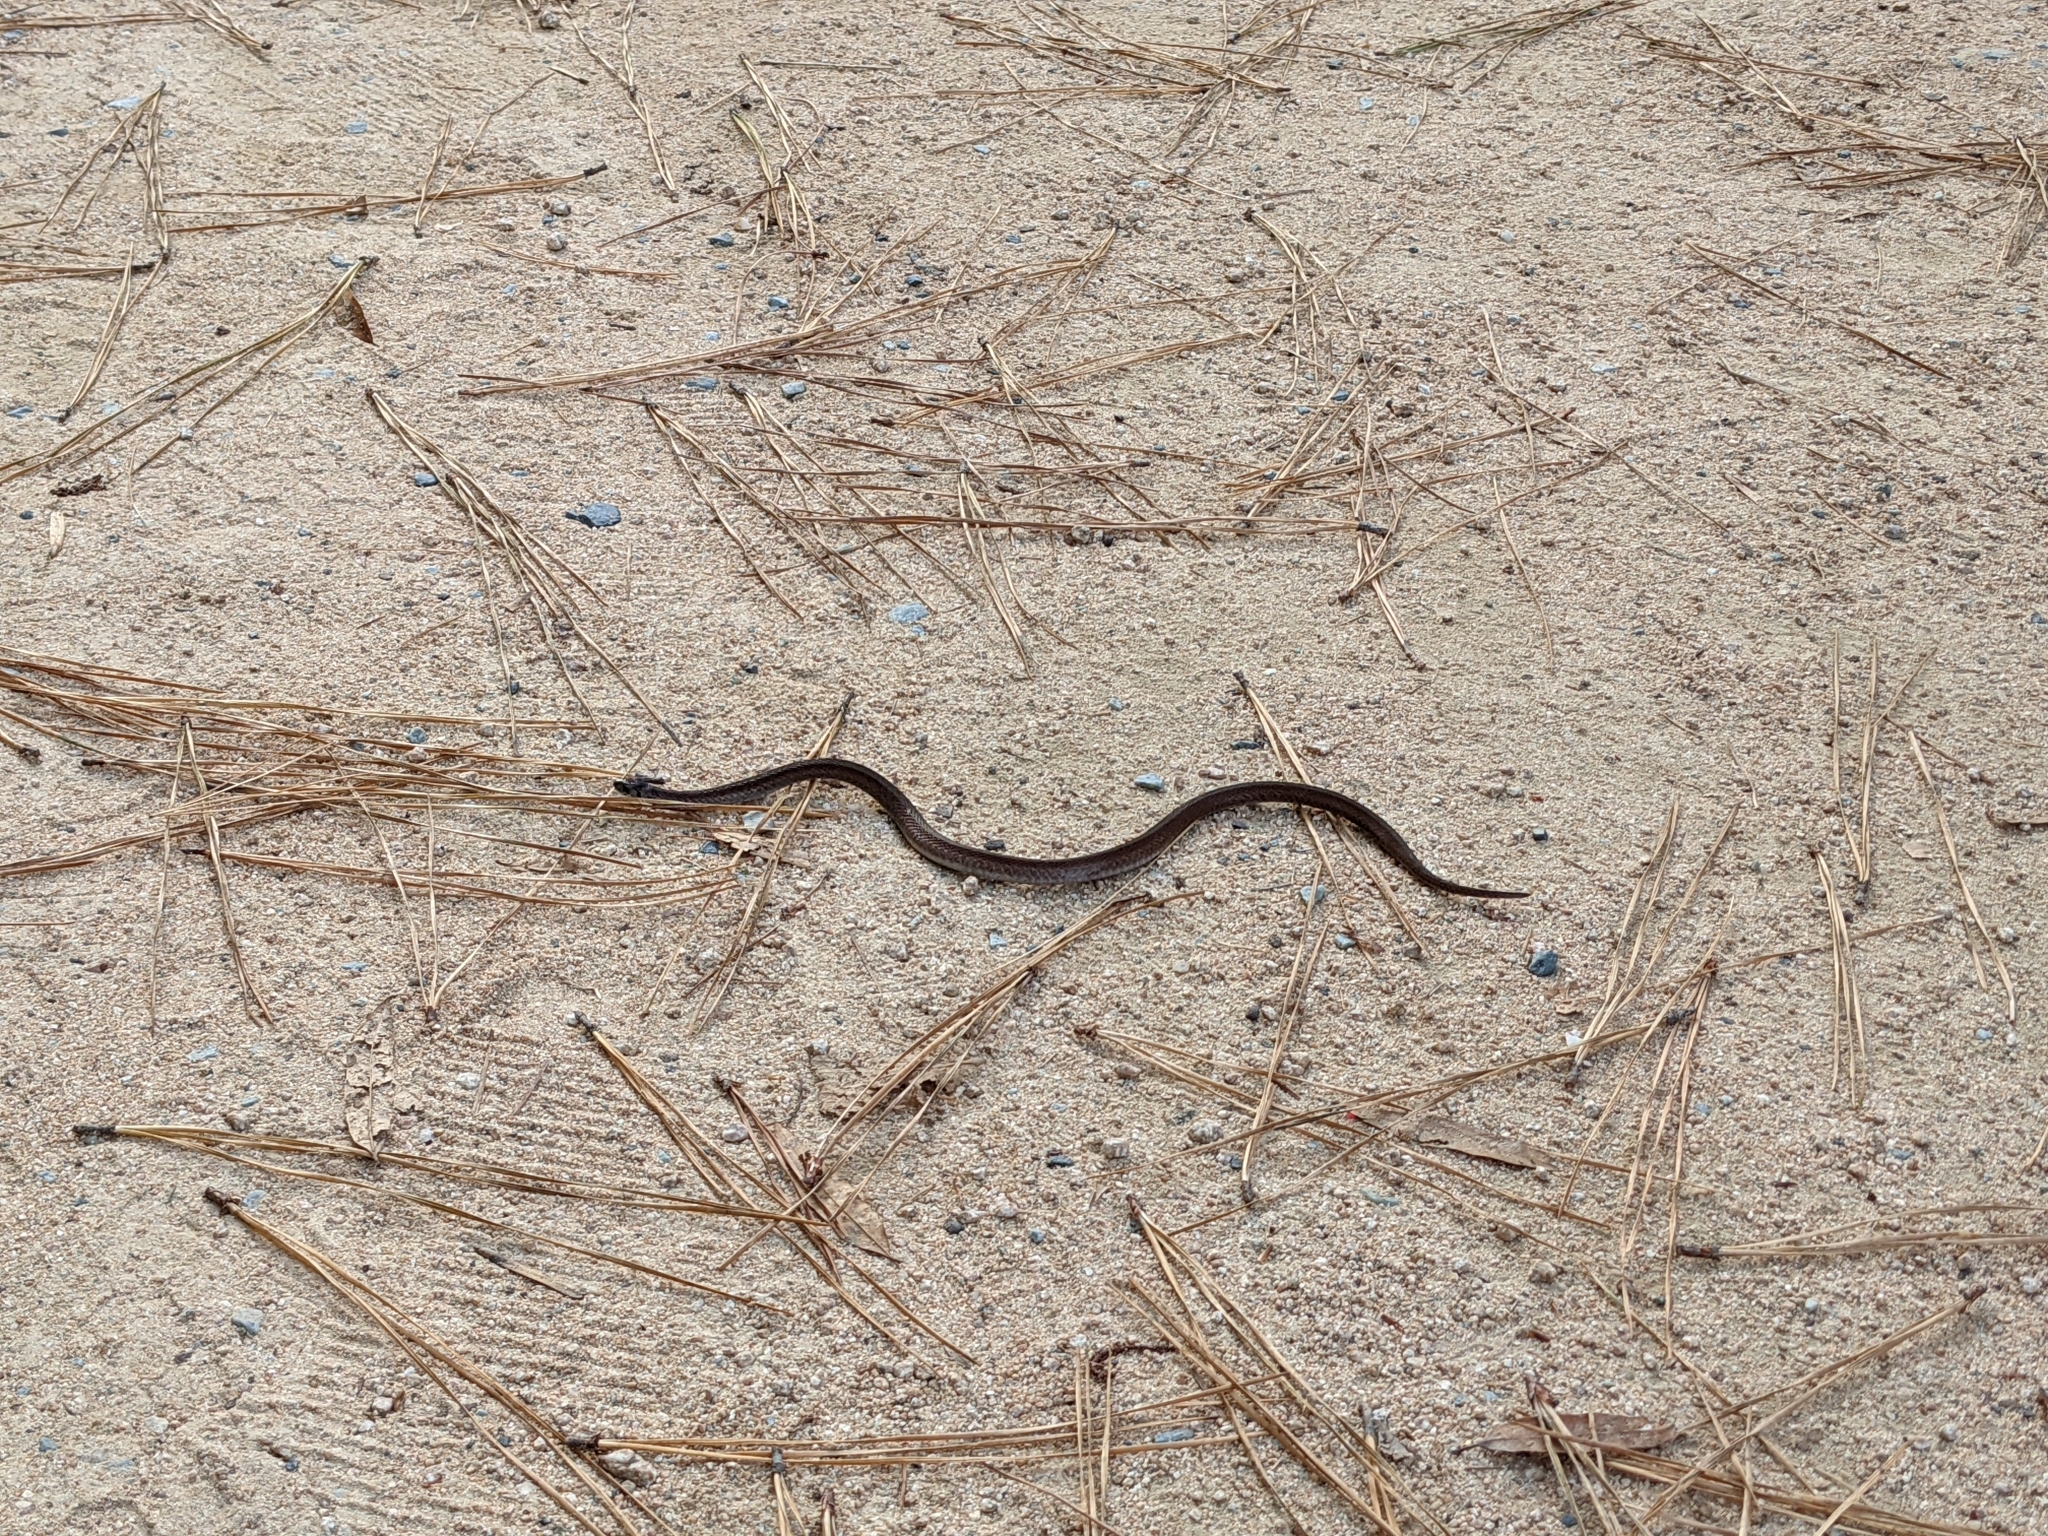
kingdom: Animalia
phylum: Chordata
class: Squamata
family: Colubridae
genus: Storeria
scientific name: Storeria dekayi
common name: (dekay’s) brown snake
